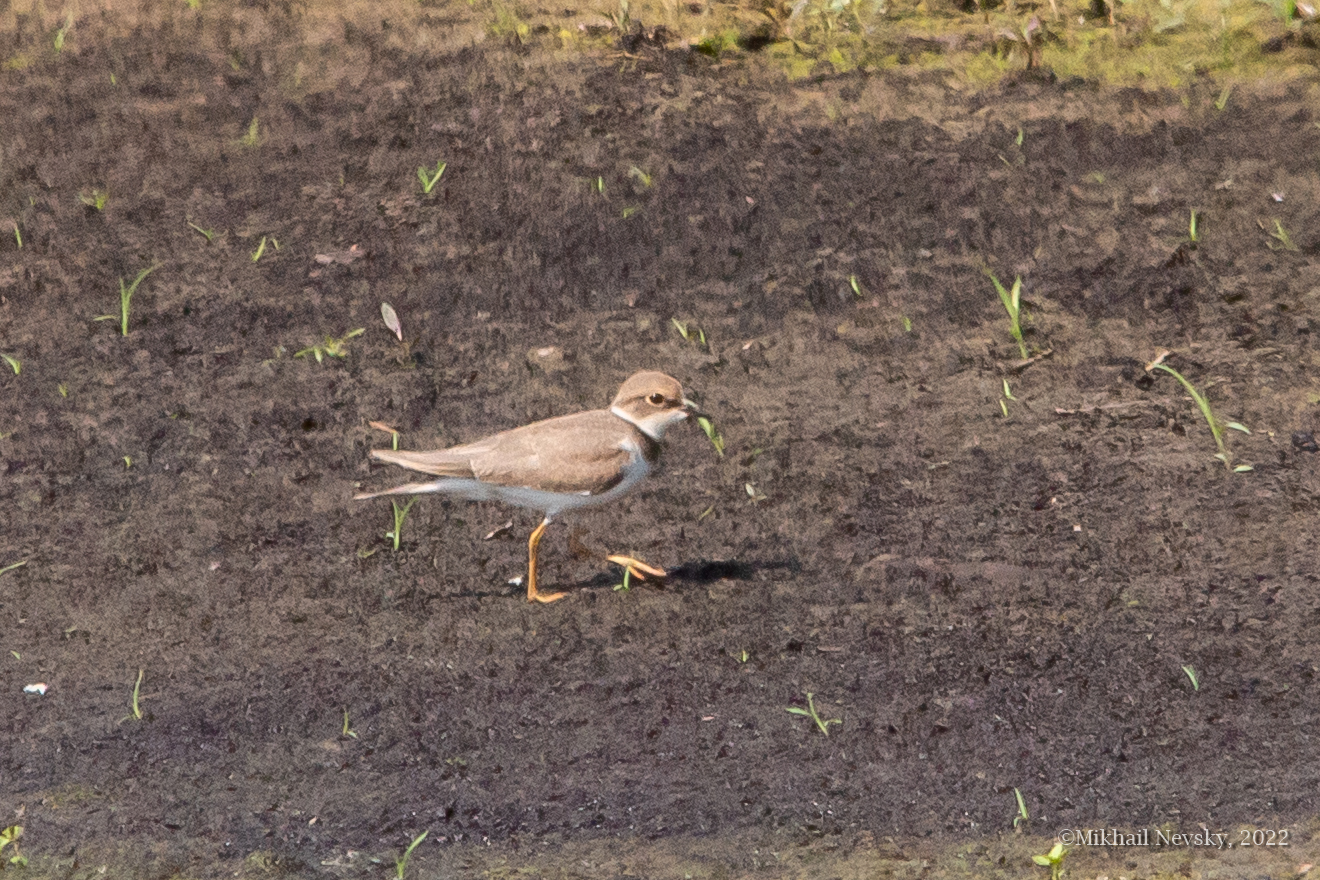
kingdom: Animalia
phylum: Chordata
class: Aves
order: Charadriiformes
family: Charadriidae
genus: Charadrius
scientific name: Charadrius dubius
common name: Little ringed plover
